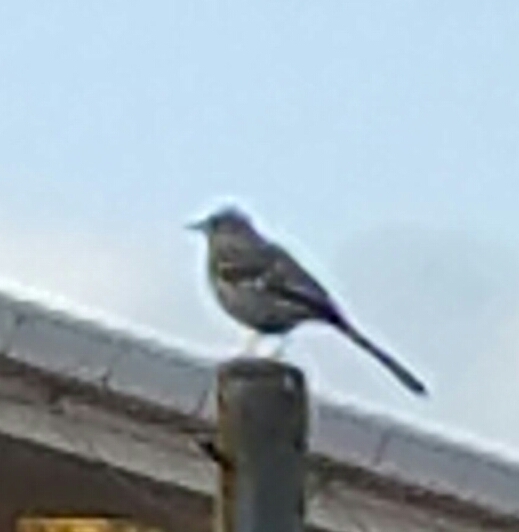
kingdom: Animalia
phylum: Chordata
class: Aves
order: Passeriformes
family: Mimidae
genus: Mimus
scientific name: Mimus polyglottos
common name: Northern mockingbird
